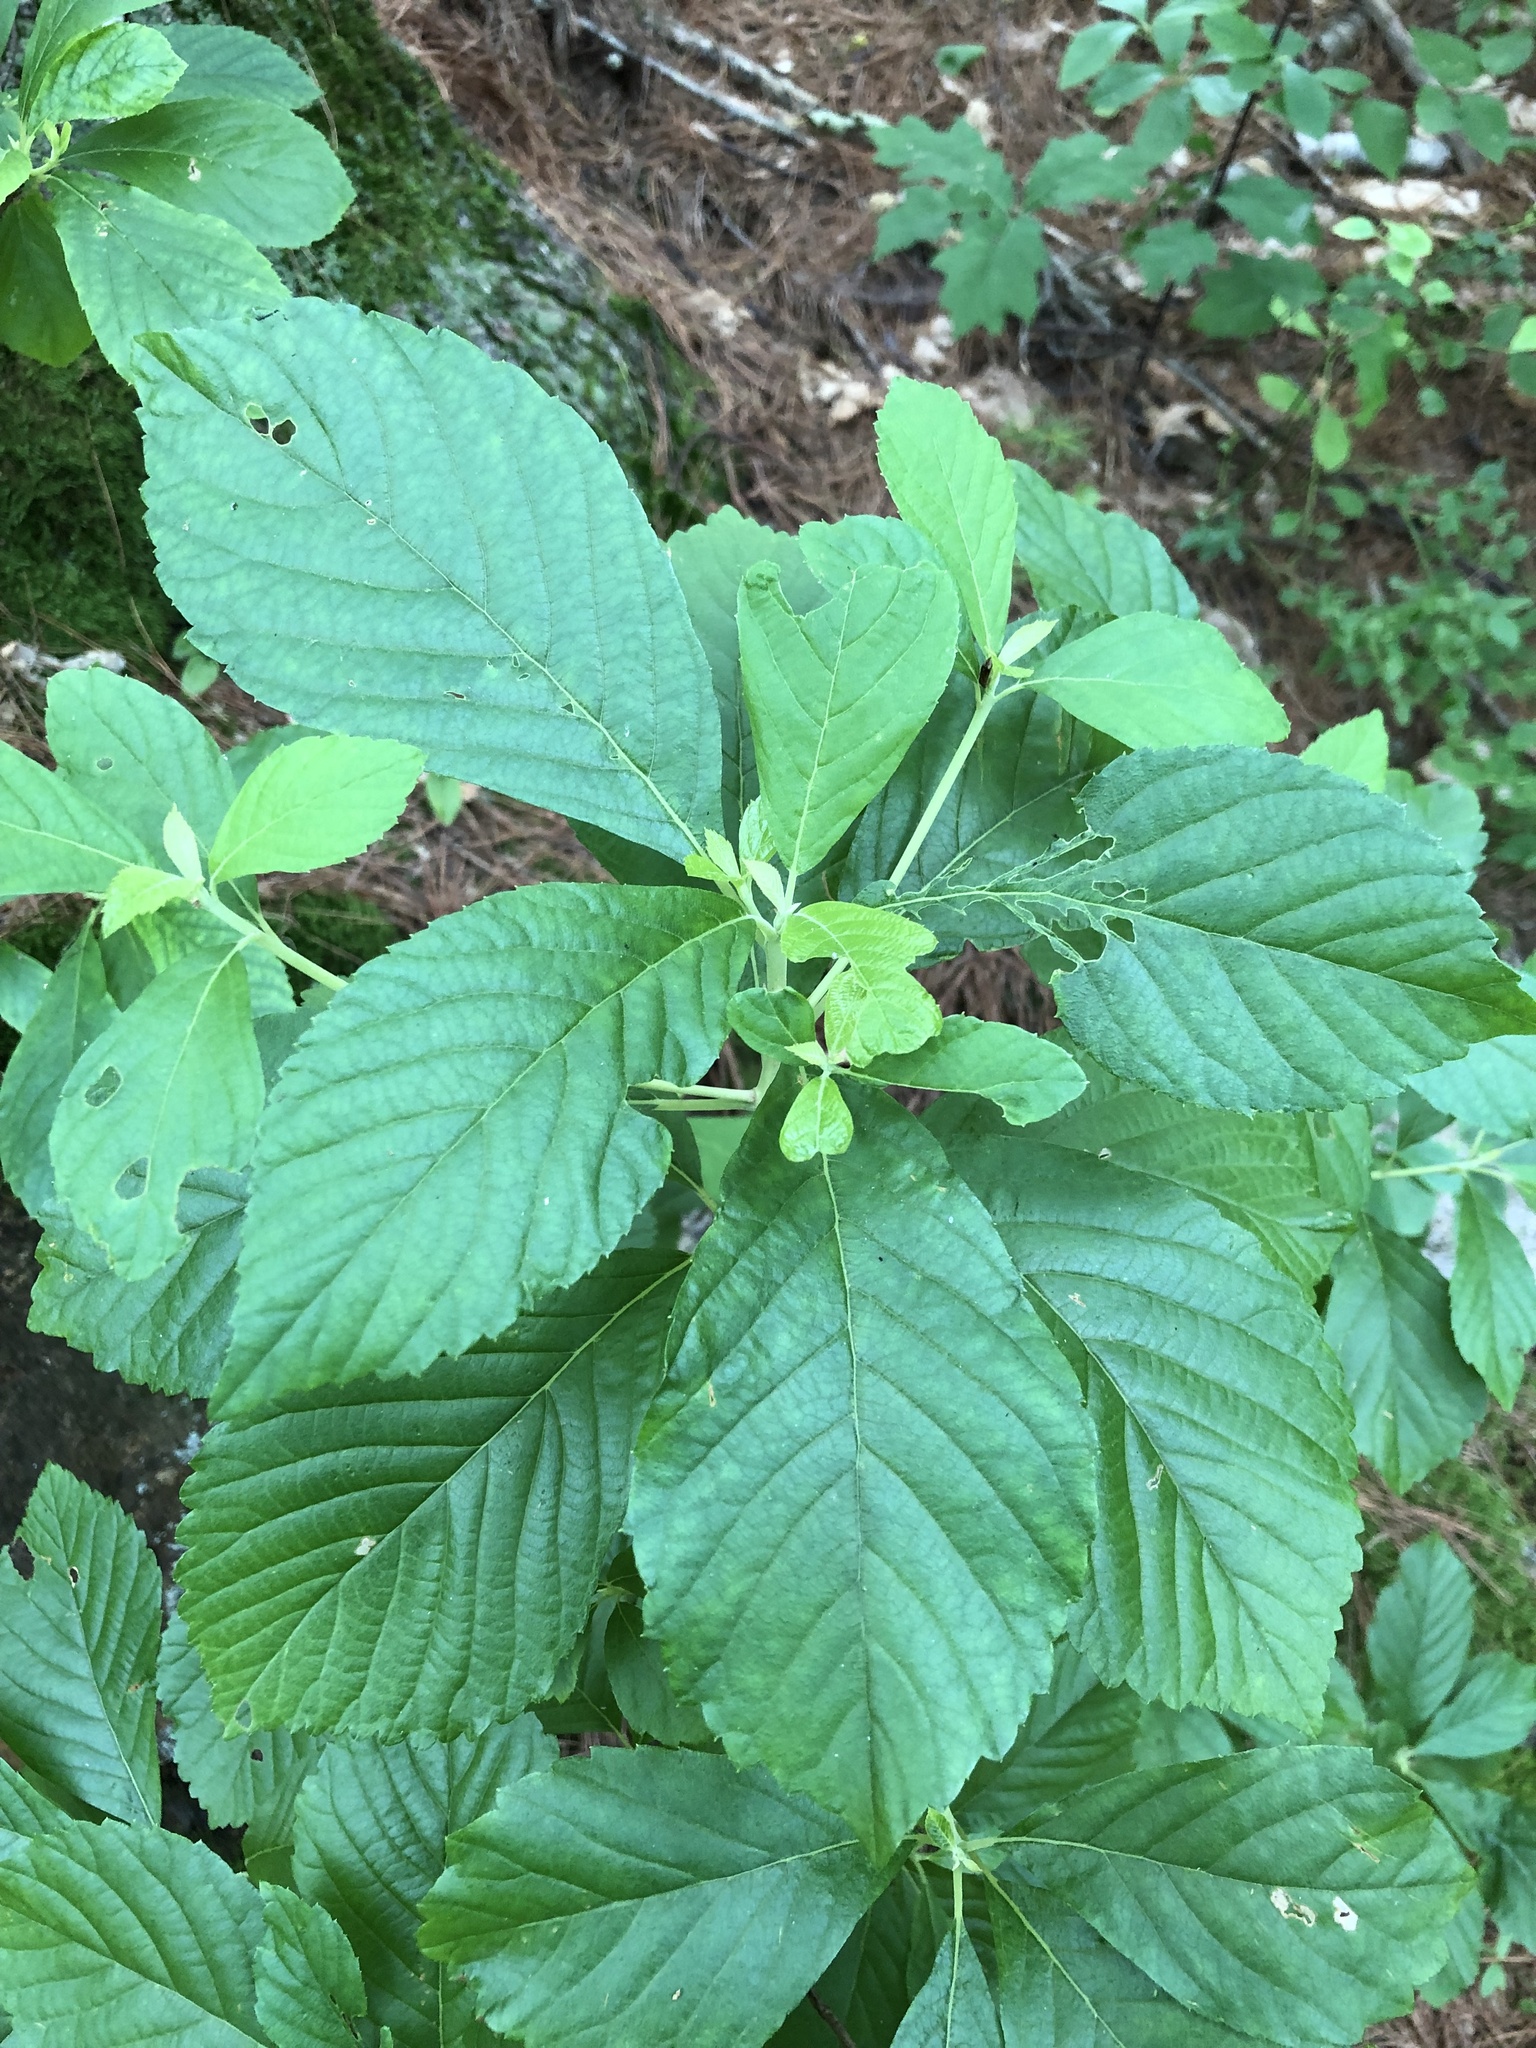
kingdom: Plantae
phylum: Tracheophyta
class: Magnoliopsida
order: Ericales
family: Clethraceae
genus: Clethra
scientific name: Clethra alnifolia
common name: Sweet pepperbush
